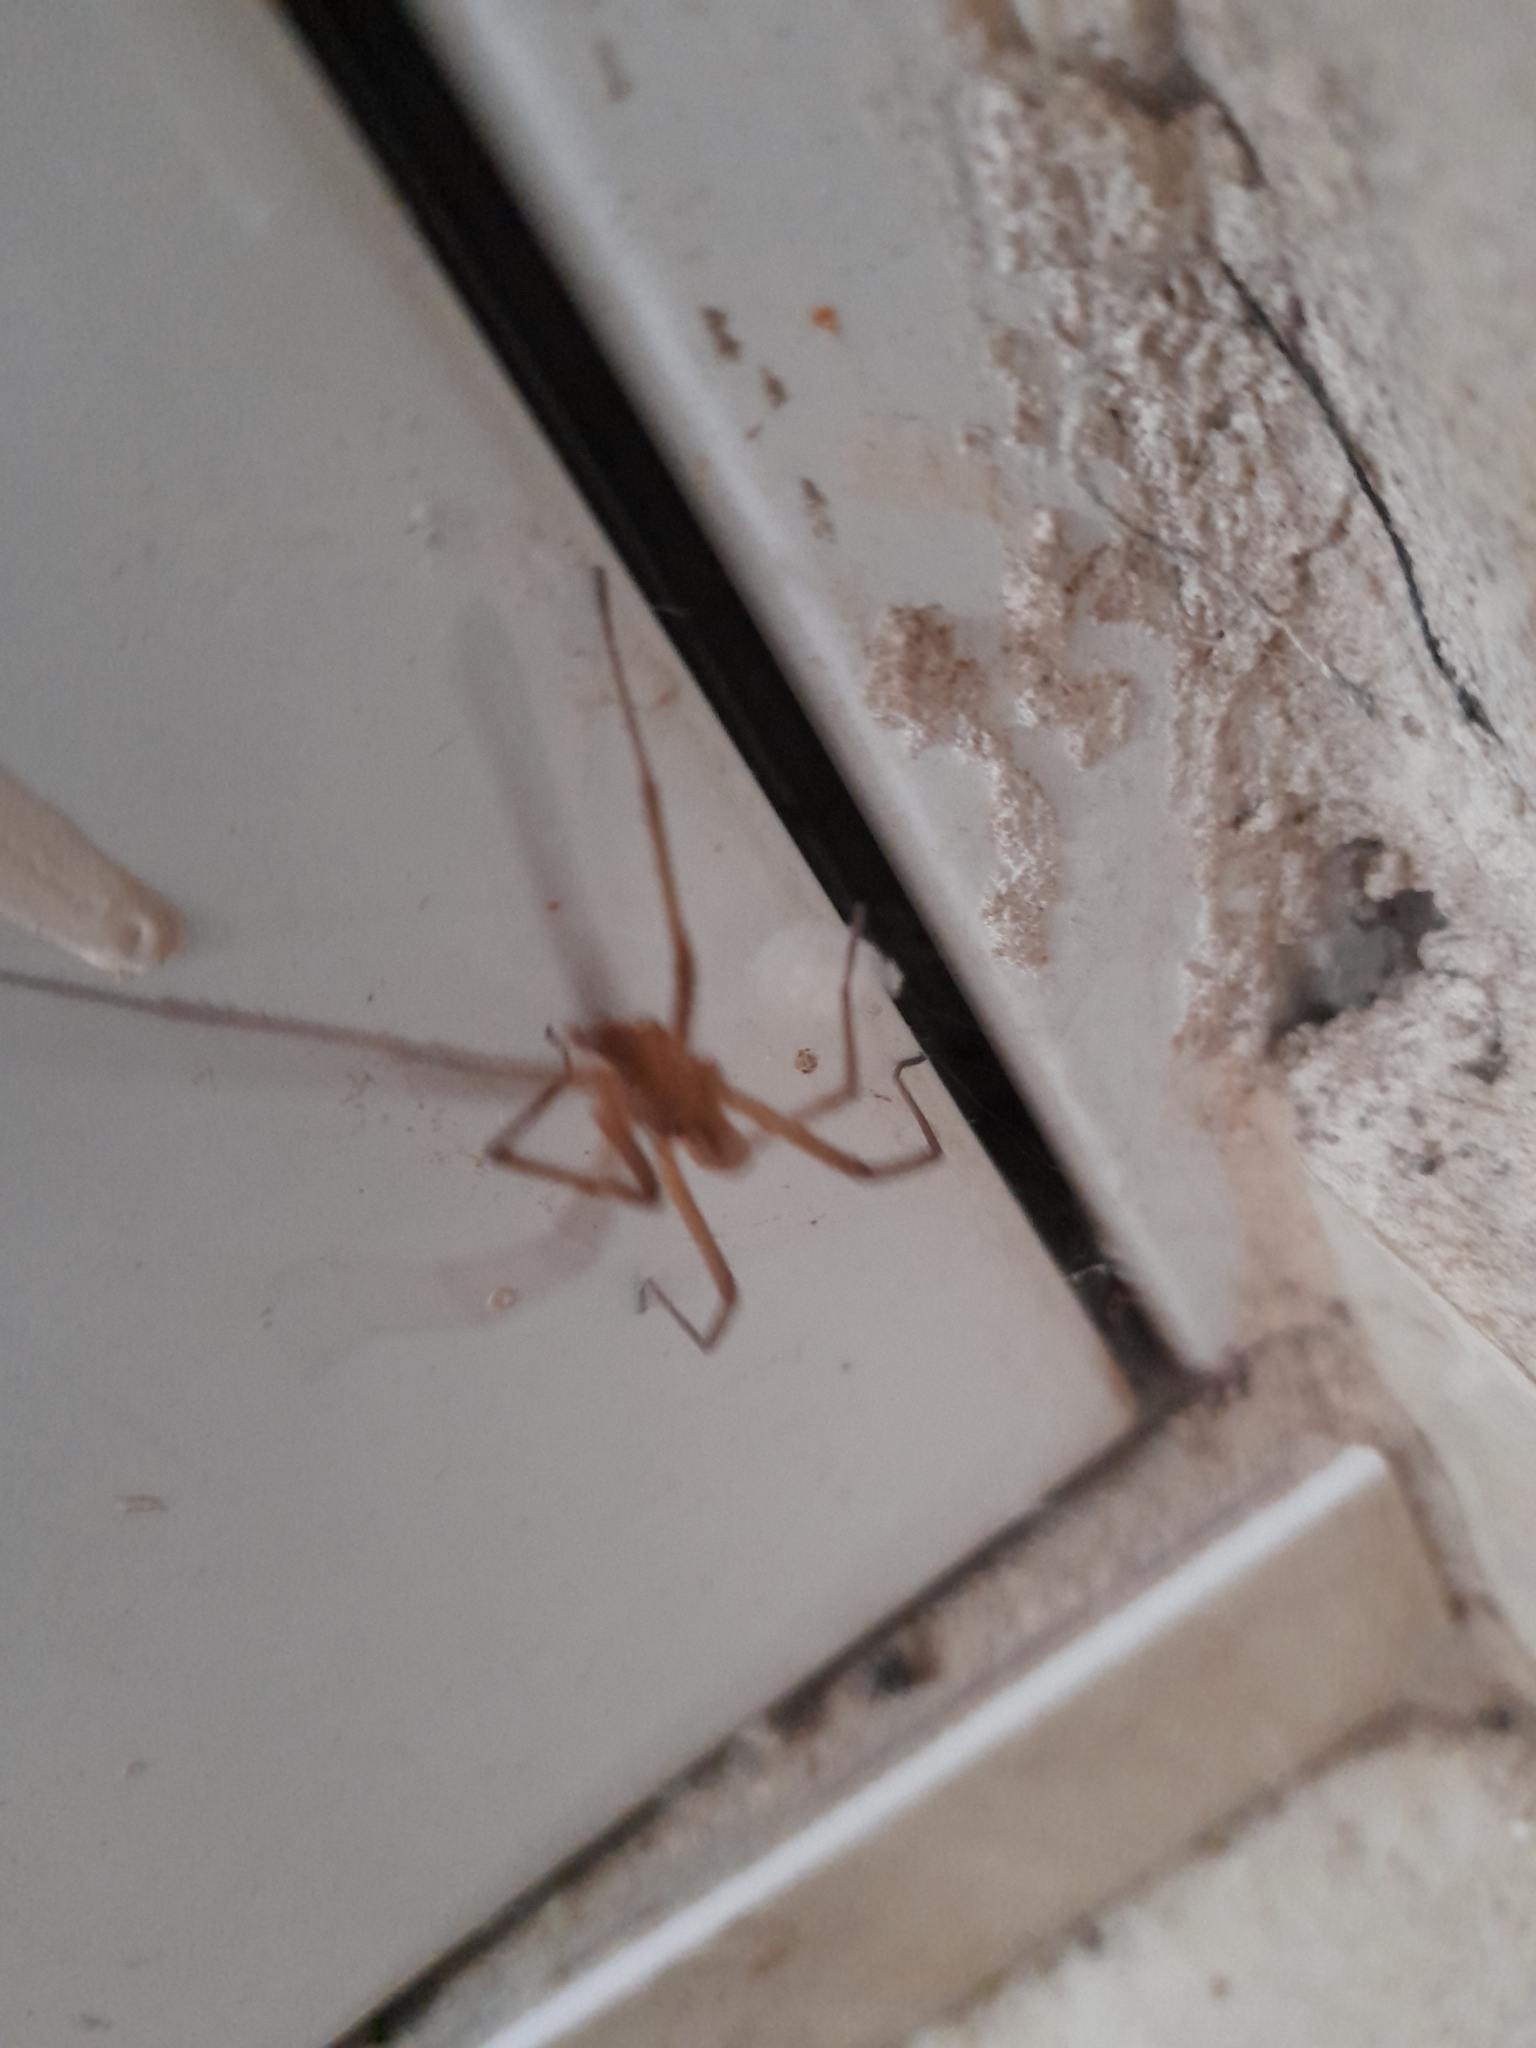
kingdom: Animalia
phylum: Arthropoda
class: Arachnida
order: Araneae
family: Filistatidae
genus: Kukulcania
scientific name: Kukulcania hibernalis
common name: Crevice weaver
